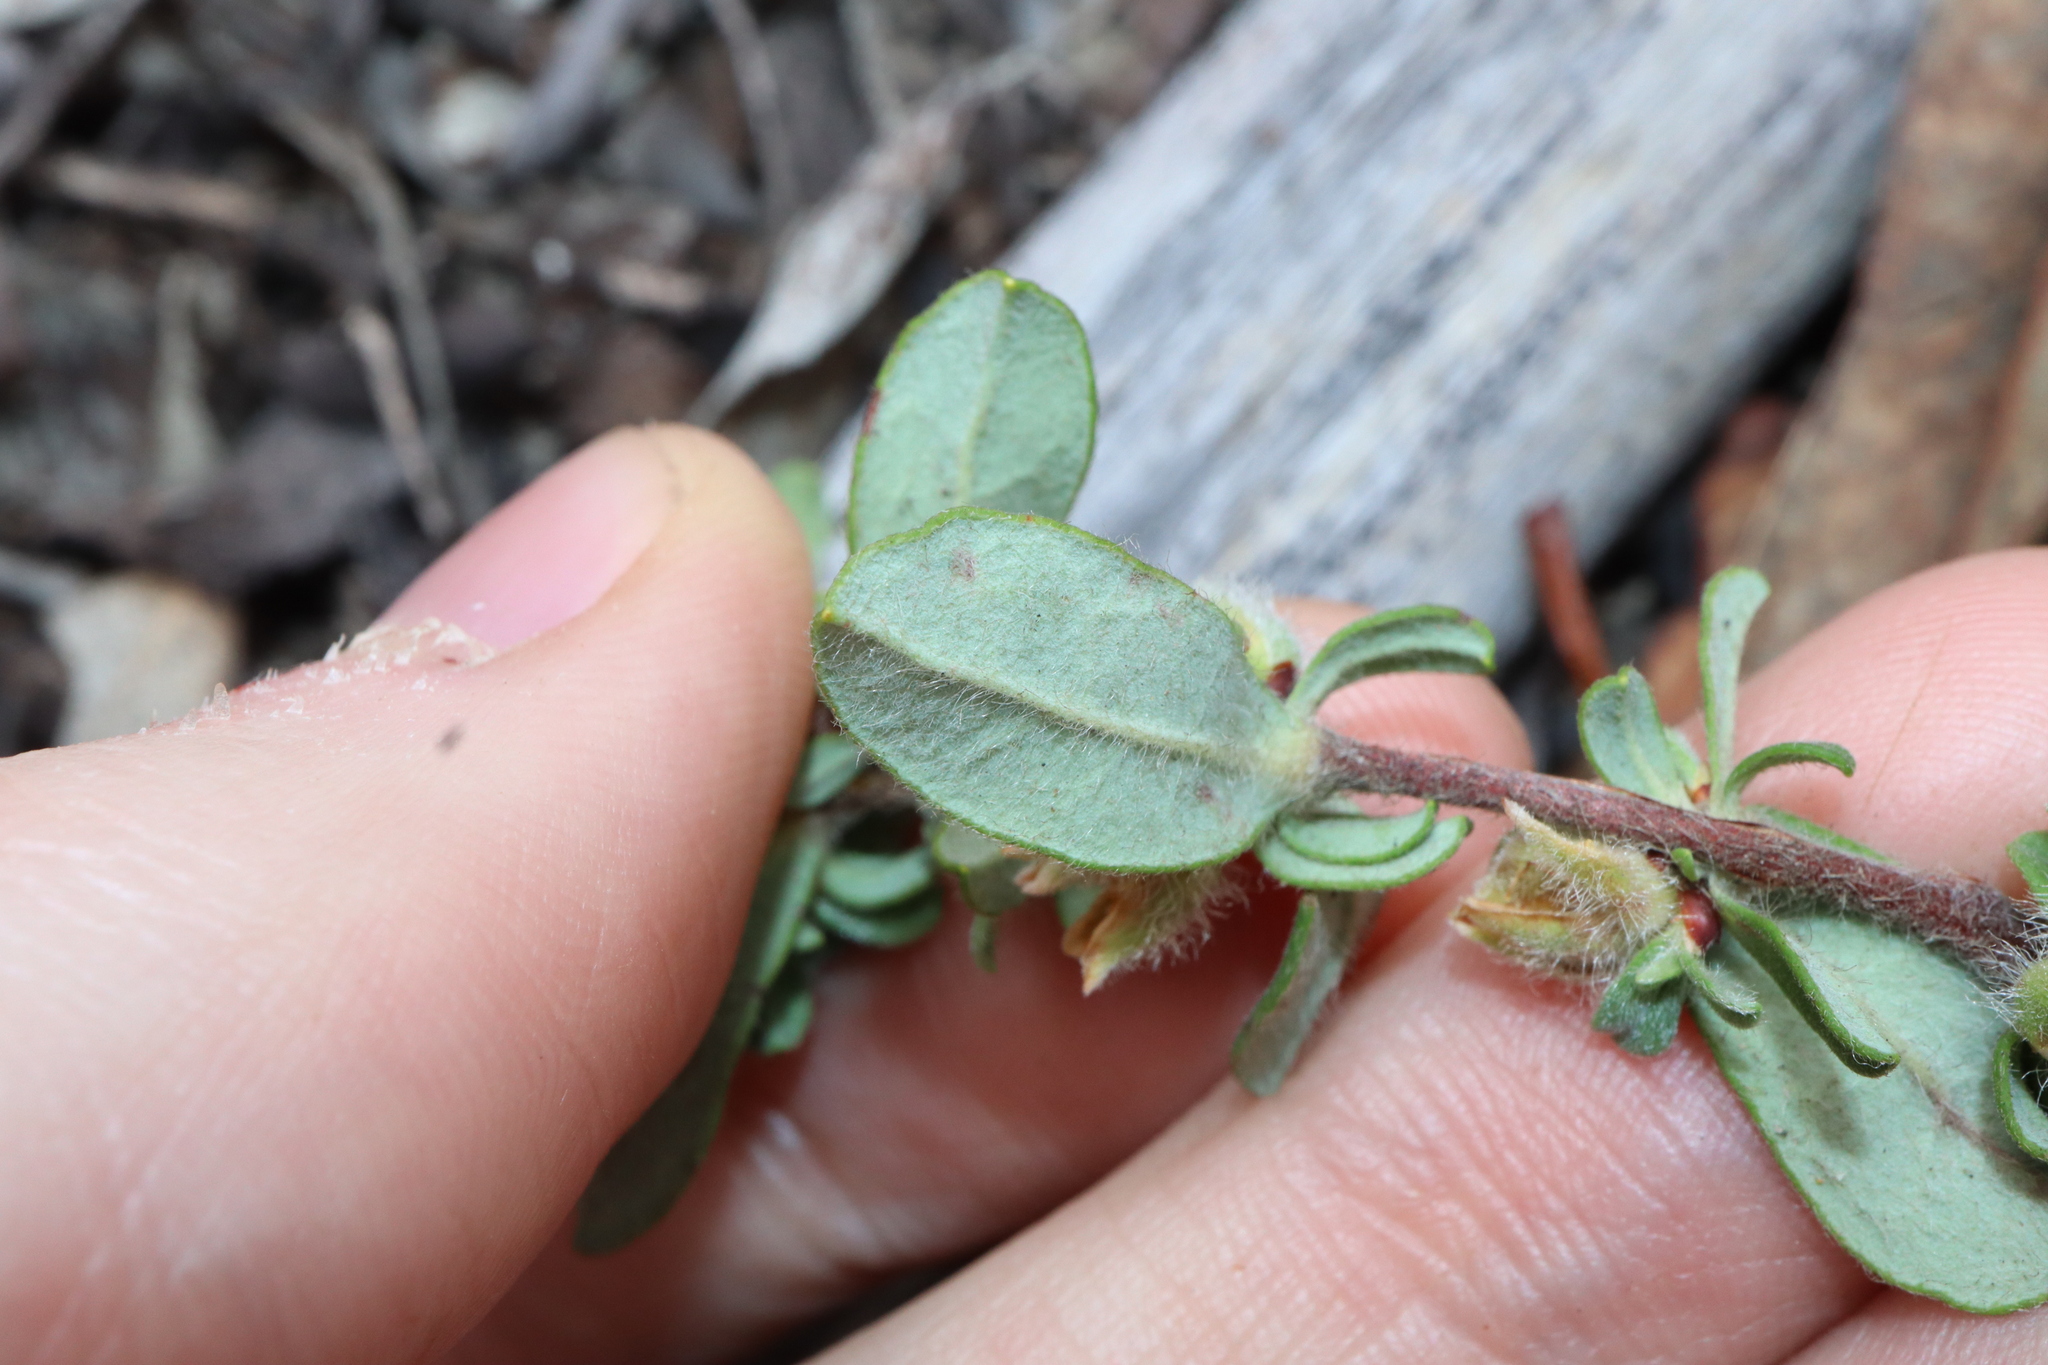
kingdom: Plantae
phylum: Tracheophyta
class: Magnoliopsida
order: Dilleniales
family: Dilleniaceae
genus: Hibbertia
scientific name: Hibbertia commutata
